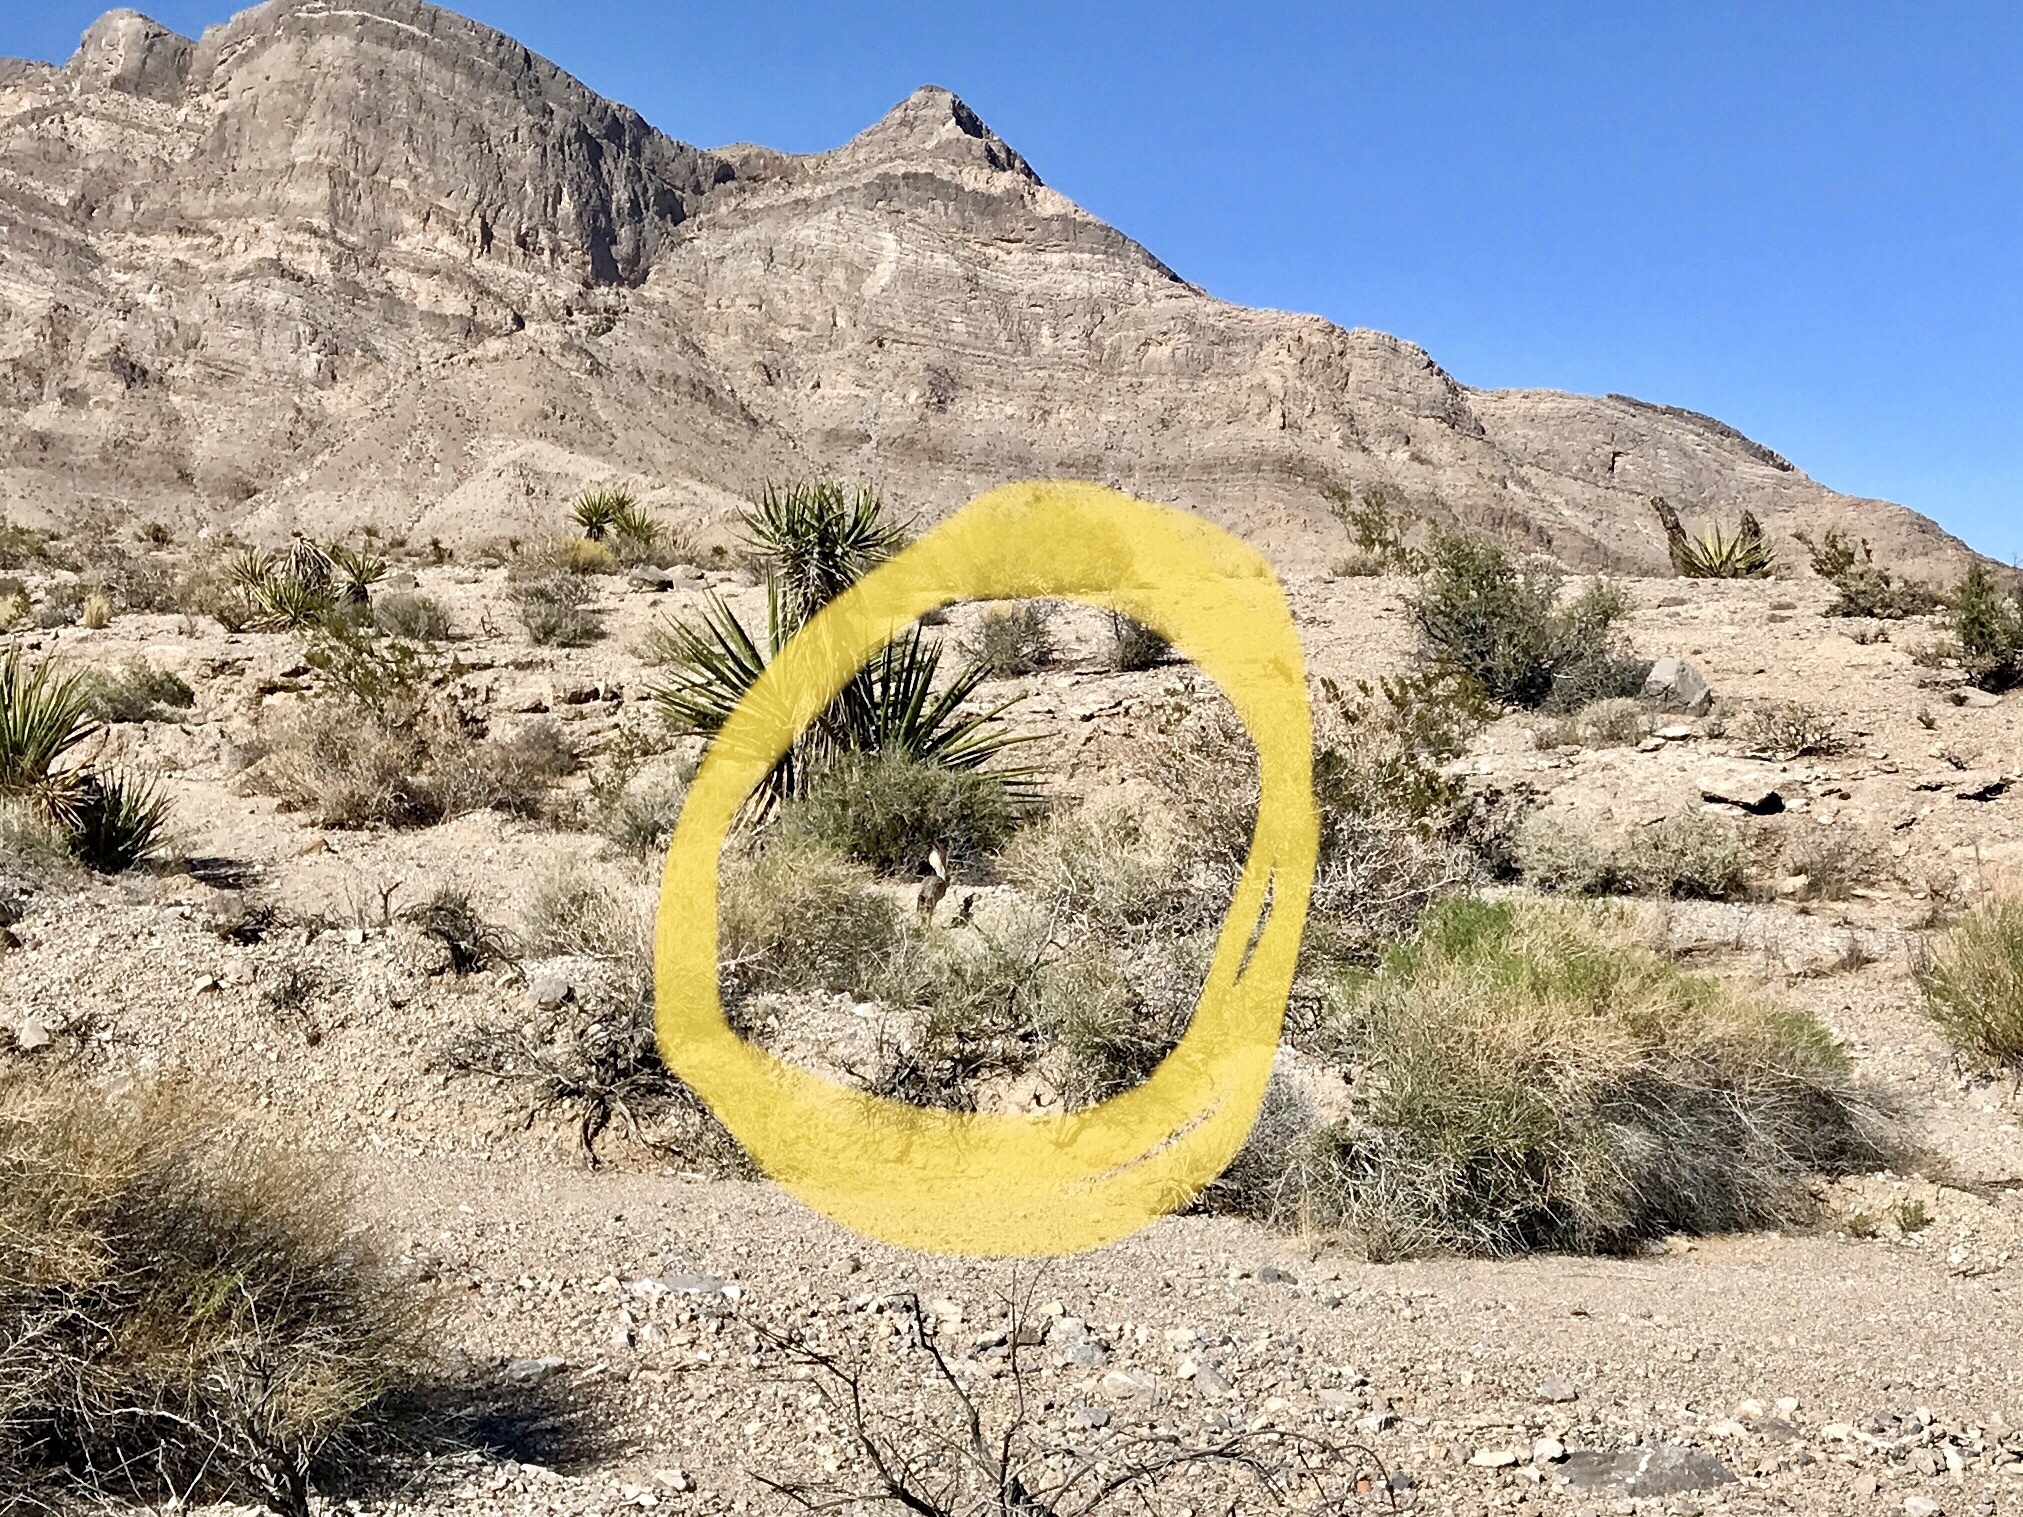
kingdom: Animalia
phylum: Chordata
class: Mammalia
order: Lagomorpha
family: Leporidae
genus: Lepus
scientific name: Lepus californicus
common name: Black-tailed jackrabbit
